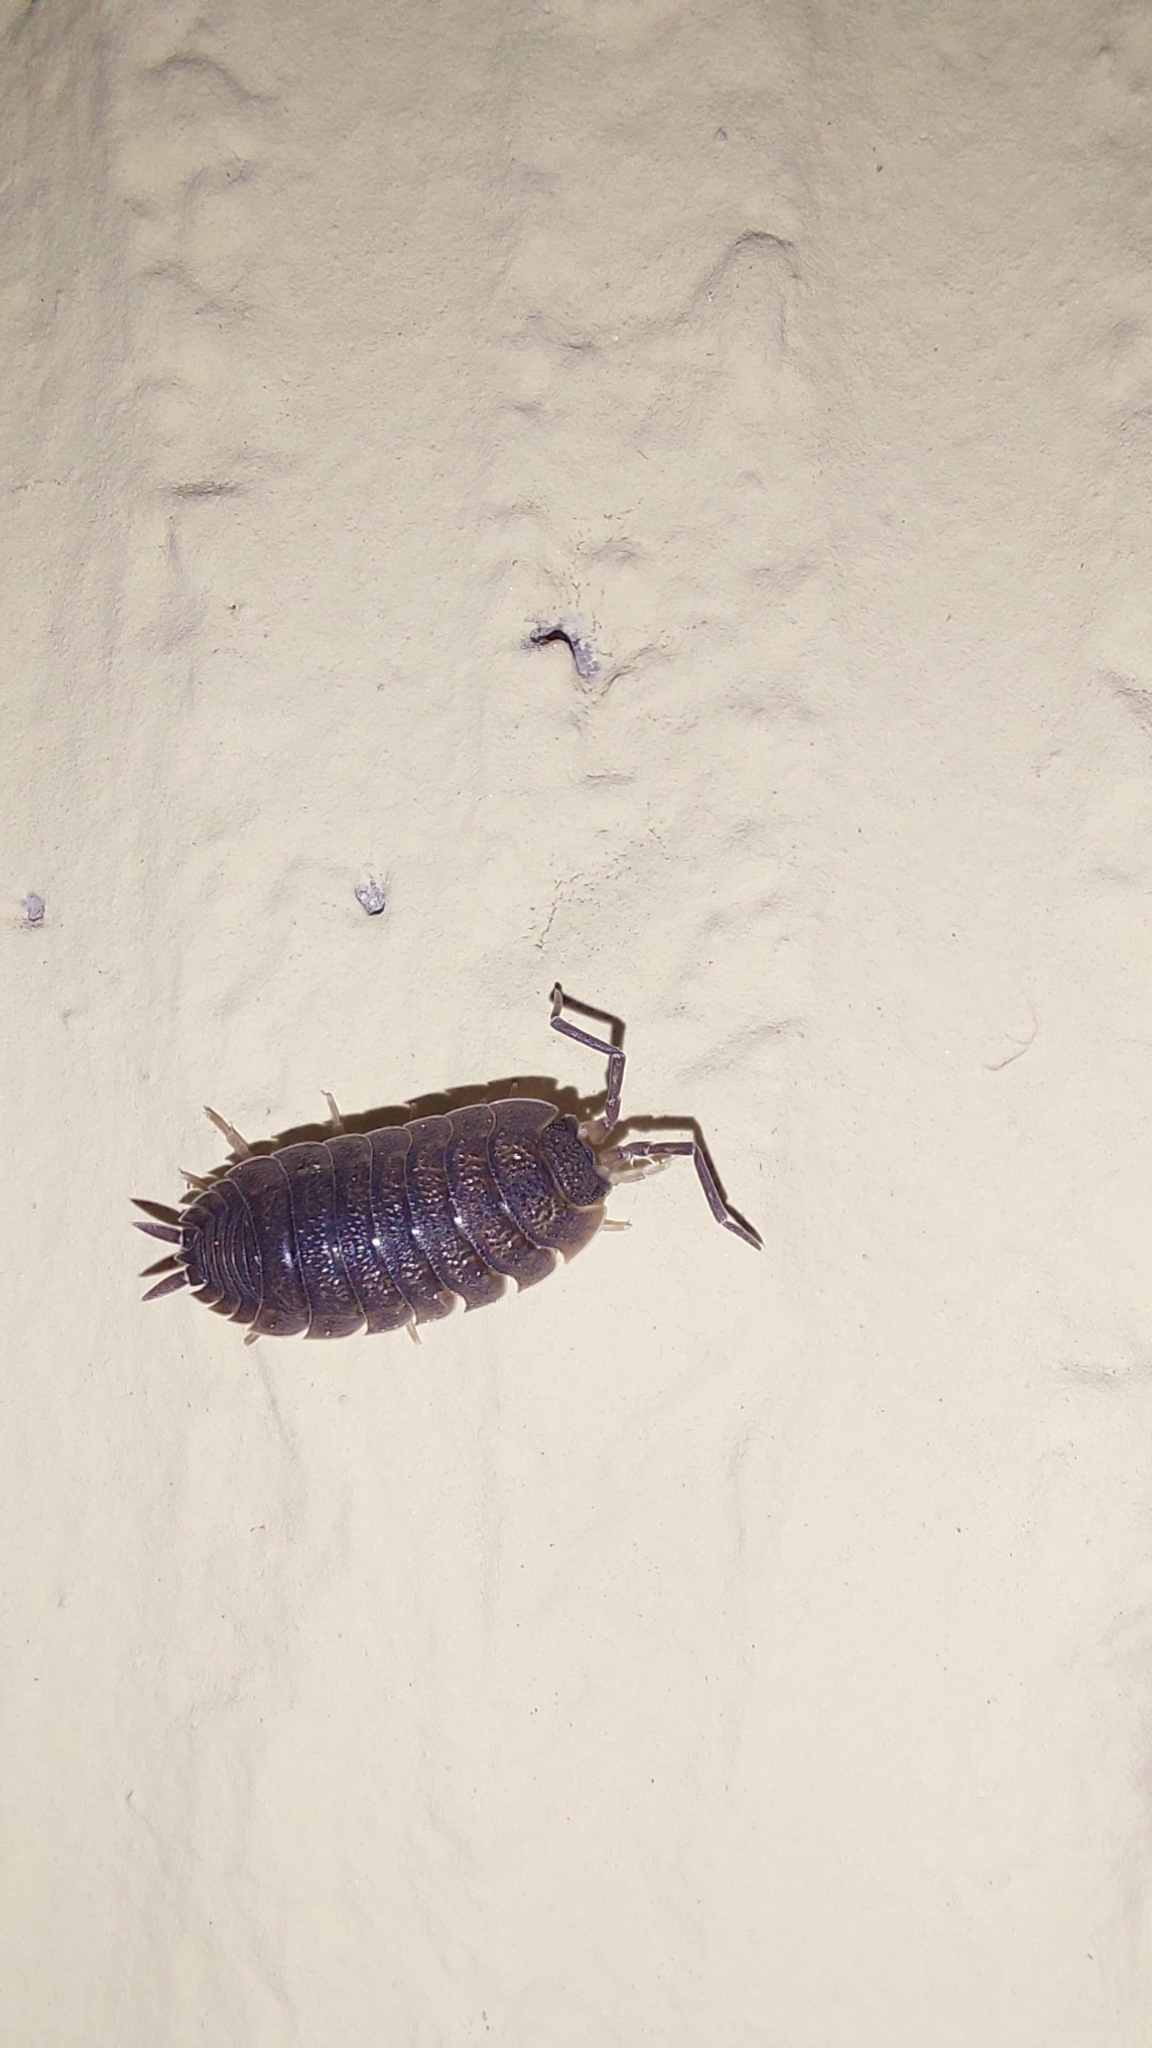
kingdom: Animalia
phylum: Arthropoda
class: Malacostraca
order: Isopoda
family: Porcellionidae
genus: Porcellio
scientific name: Porcellio scaber
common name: Common rough woodlouse
